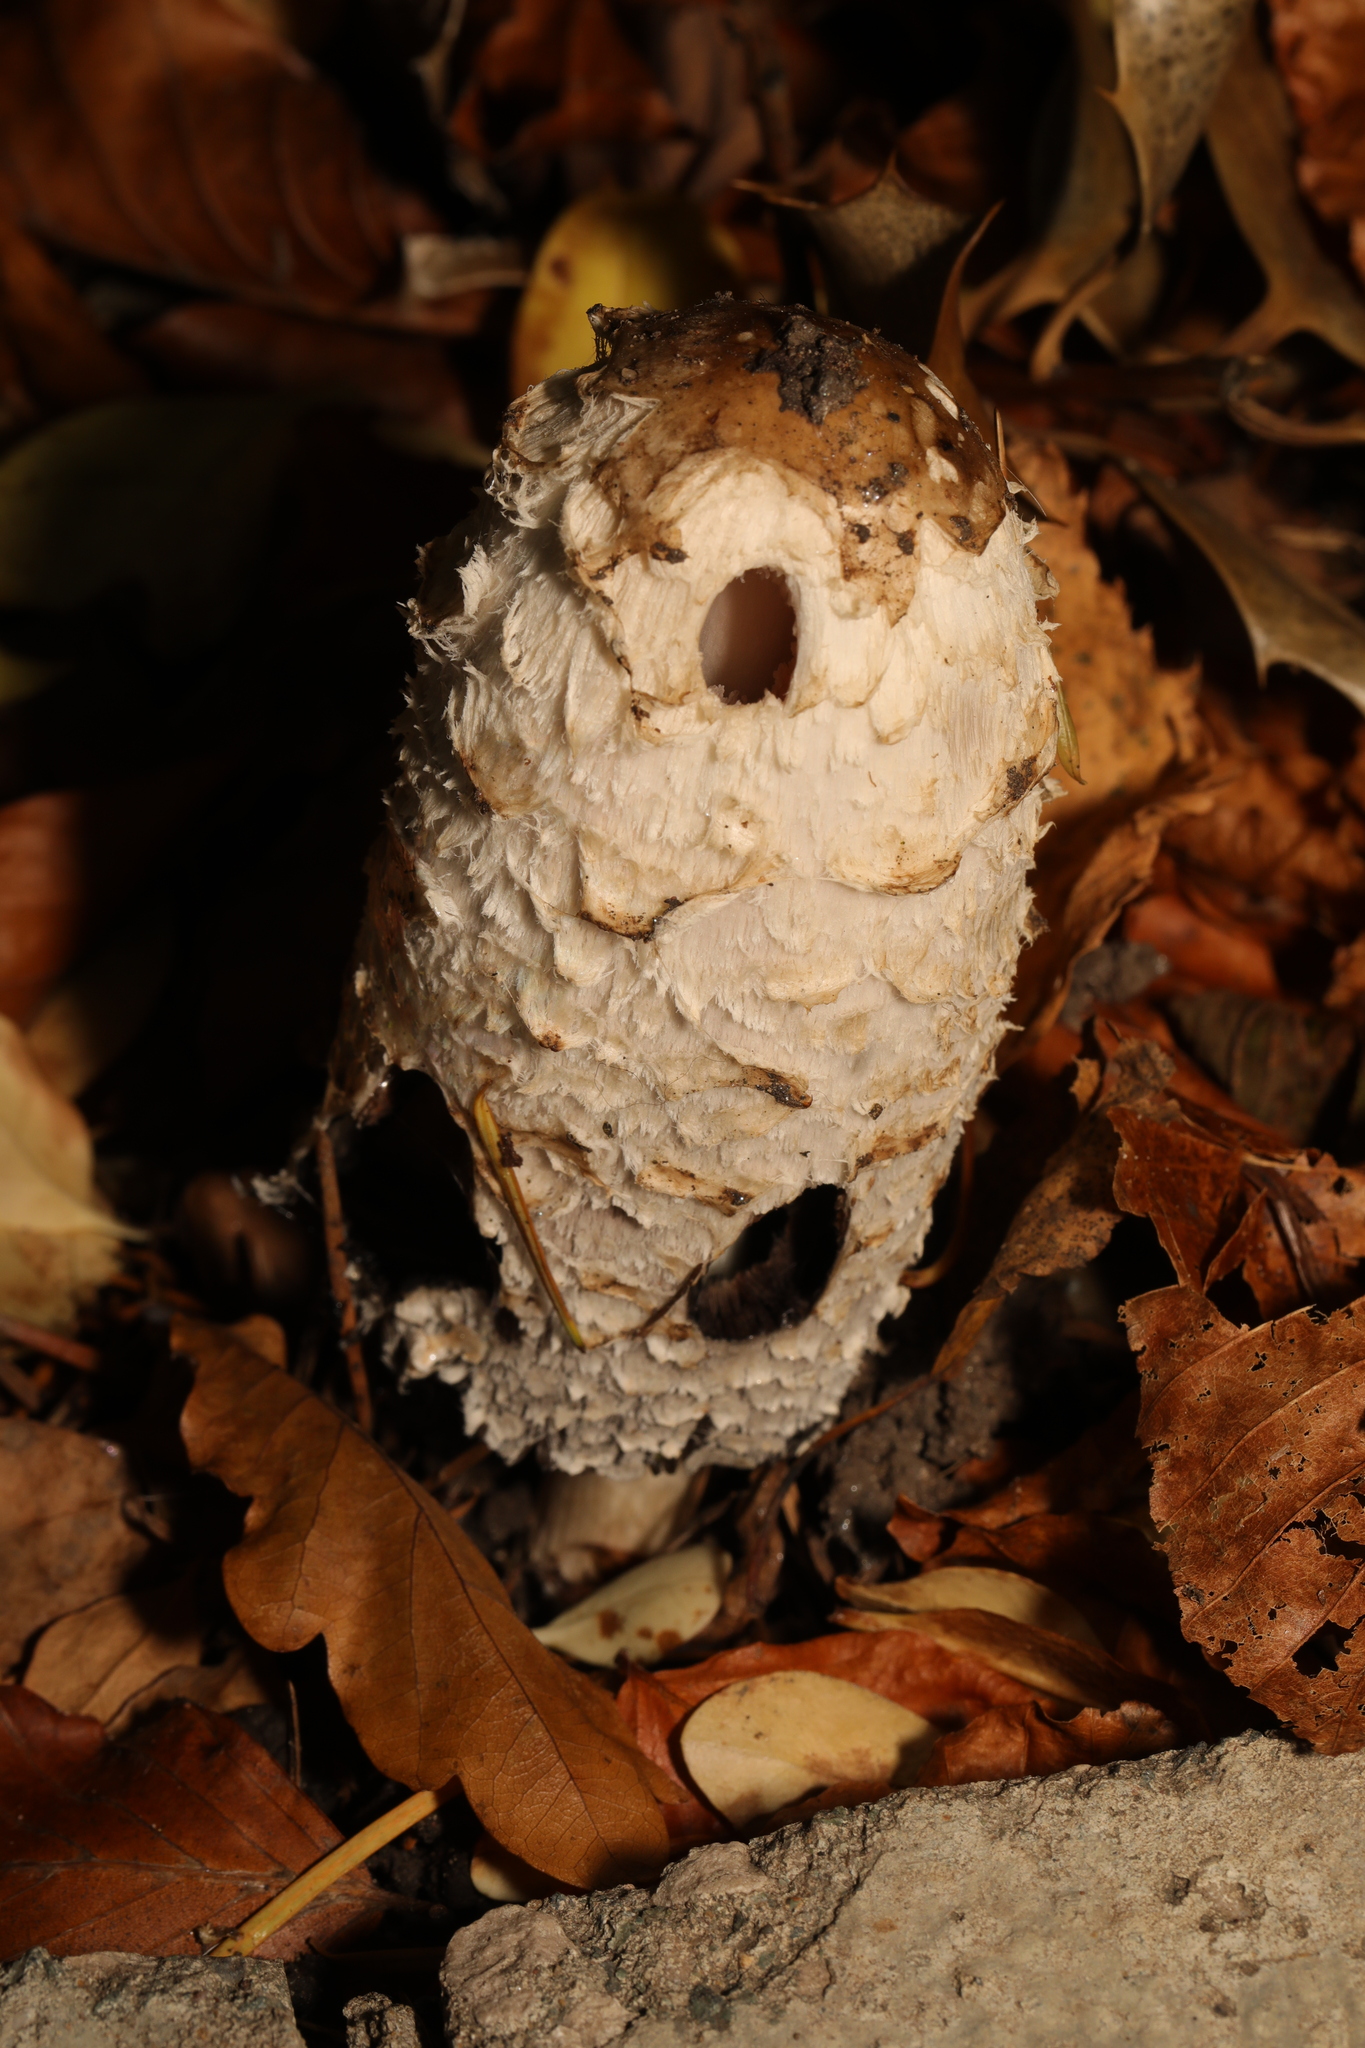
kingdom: Fungi
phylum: Basidiomycota
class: Agaricomycetes
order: Agaricales
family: Agaricaceae
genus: Coprinus
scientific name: Coprinus comatus
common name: Lawyer's wig
